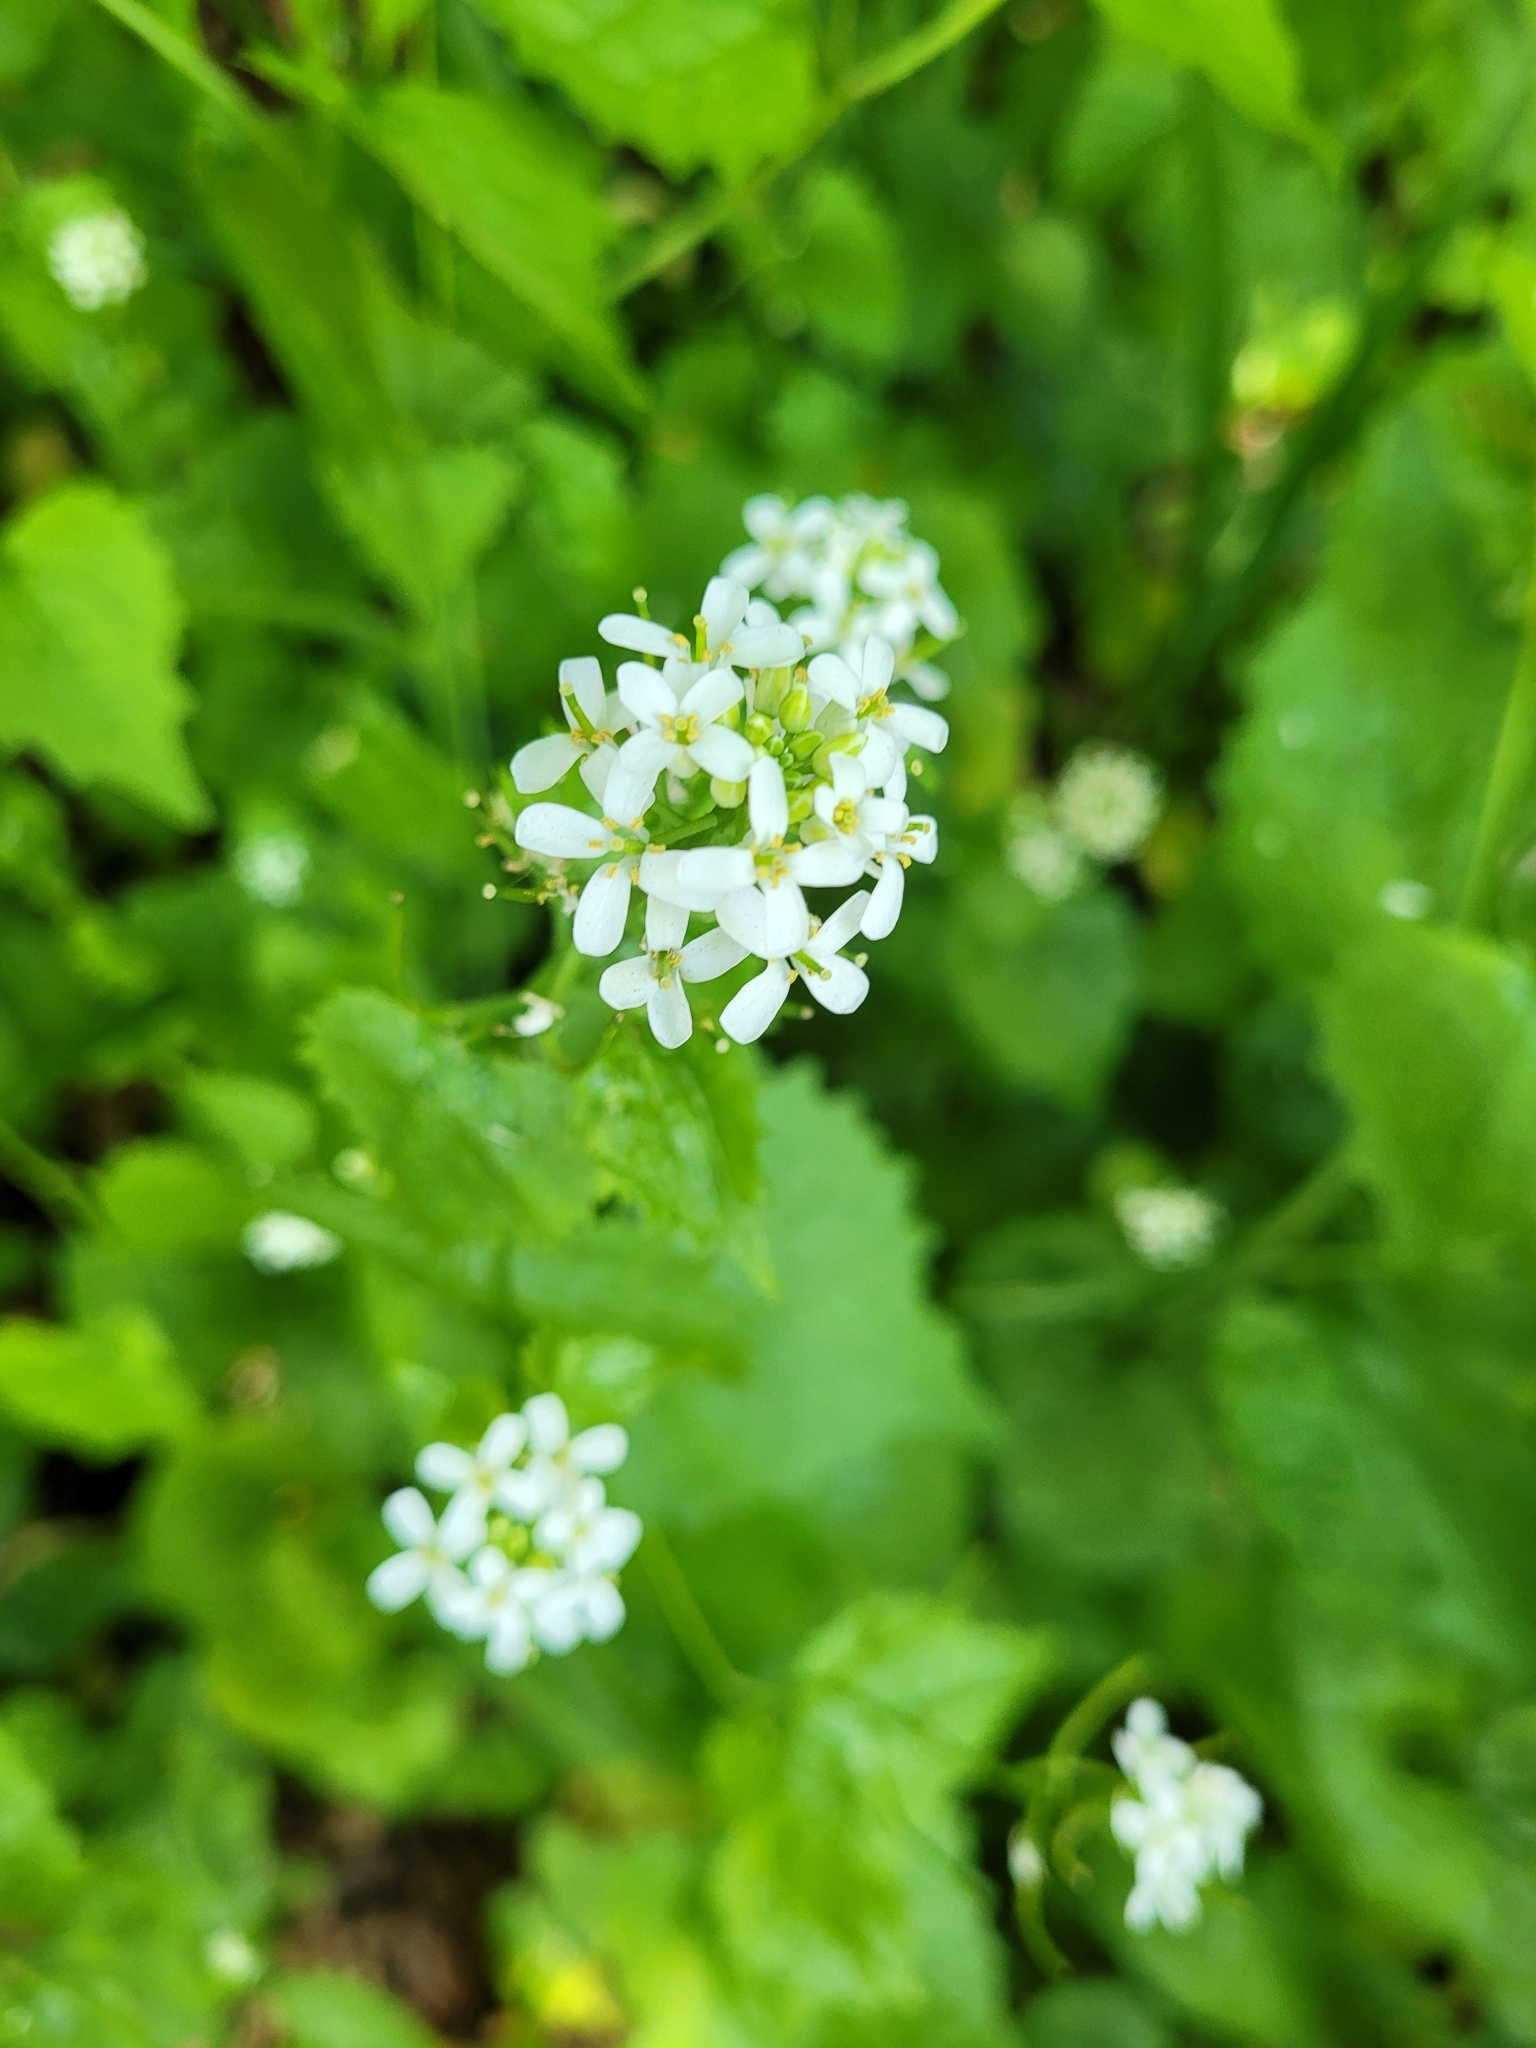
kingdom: Plantae
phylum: Tracheophyta
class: Magnoliopsida
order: Brassicales
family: Brassicaceae
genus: Alliaria
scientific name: Alliaria petiolata
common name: Garlic mustard
